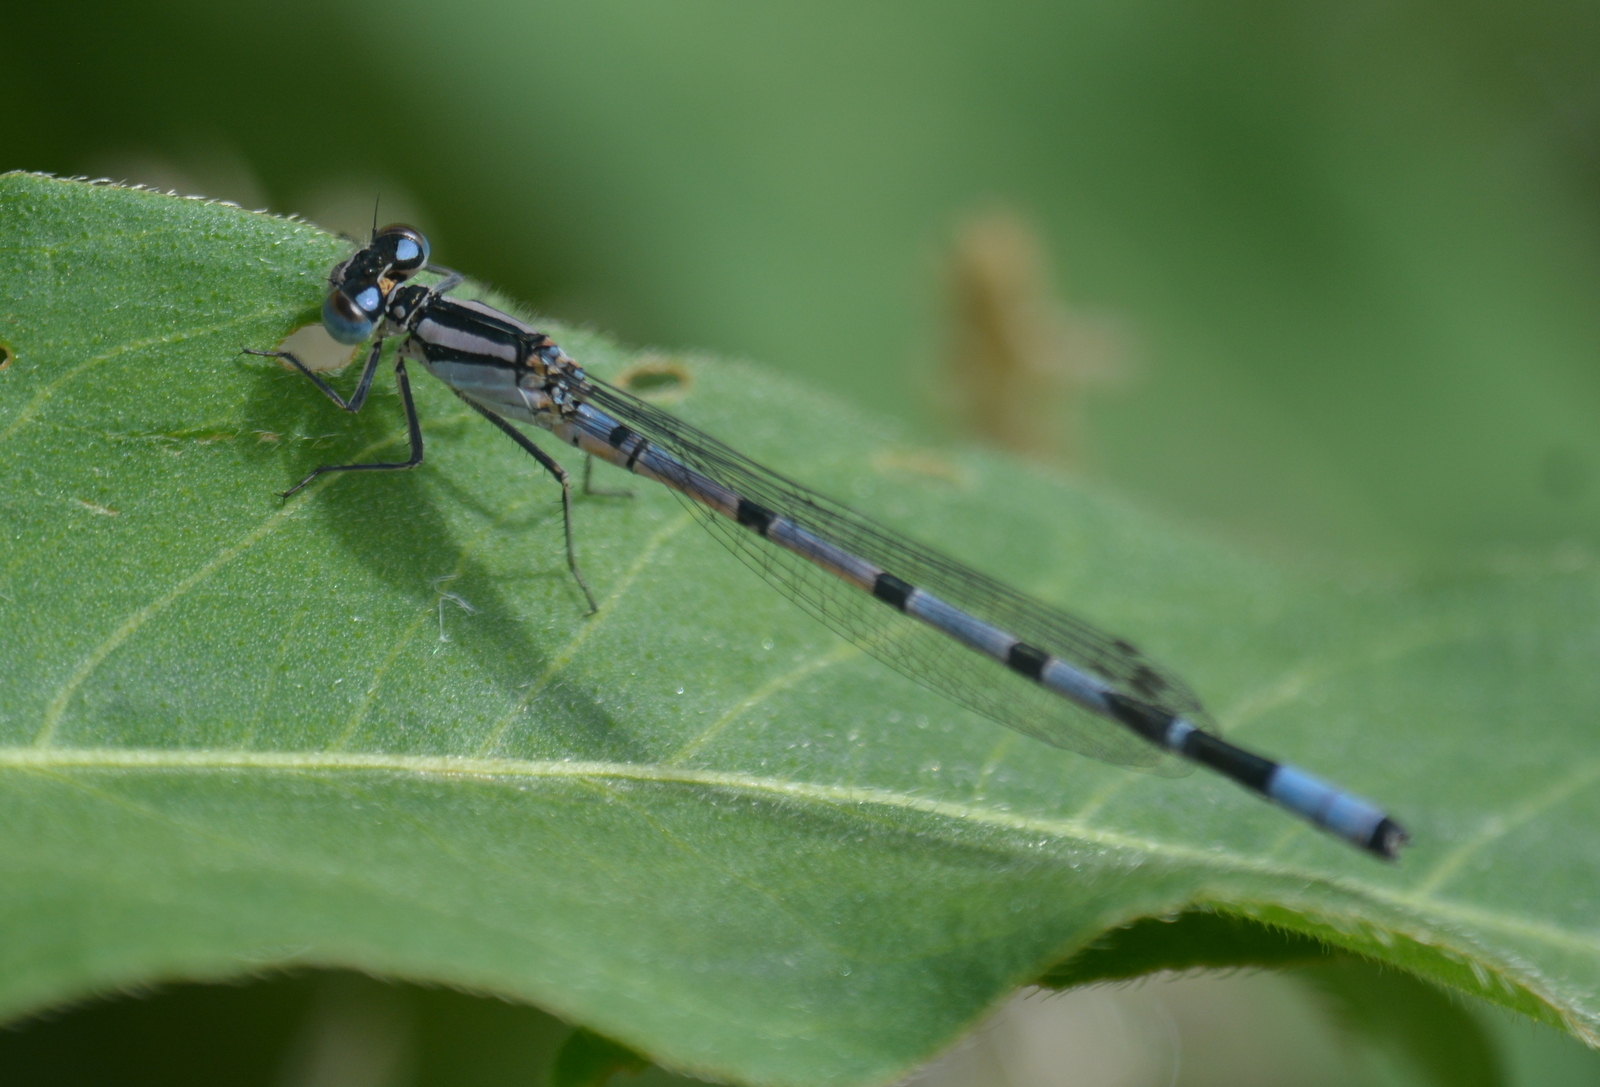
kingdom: Animalia
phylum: Arthropoda
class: Insecta
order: Odonata
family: Coenagrionidae
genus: Enallagma
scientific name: Enallagma cyathigerum
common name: Common blue damselfly
